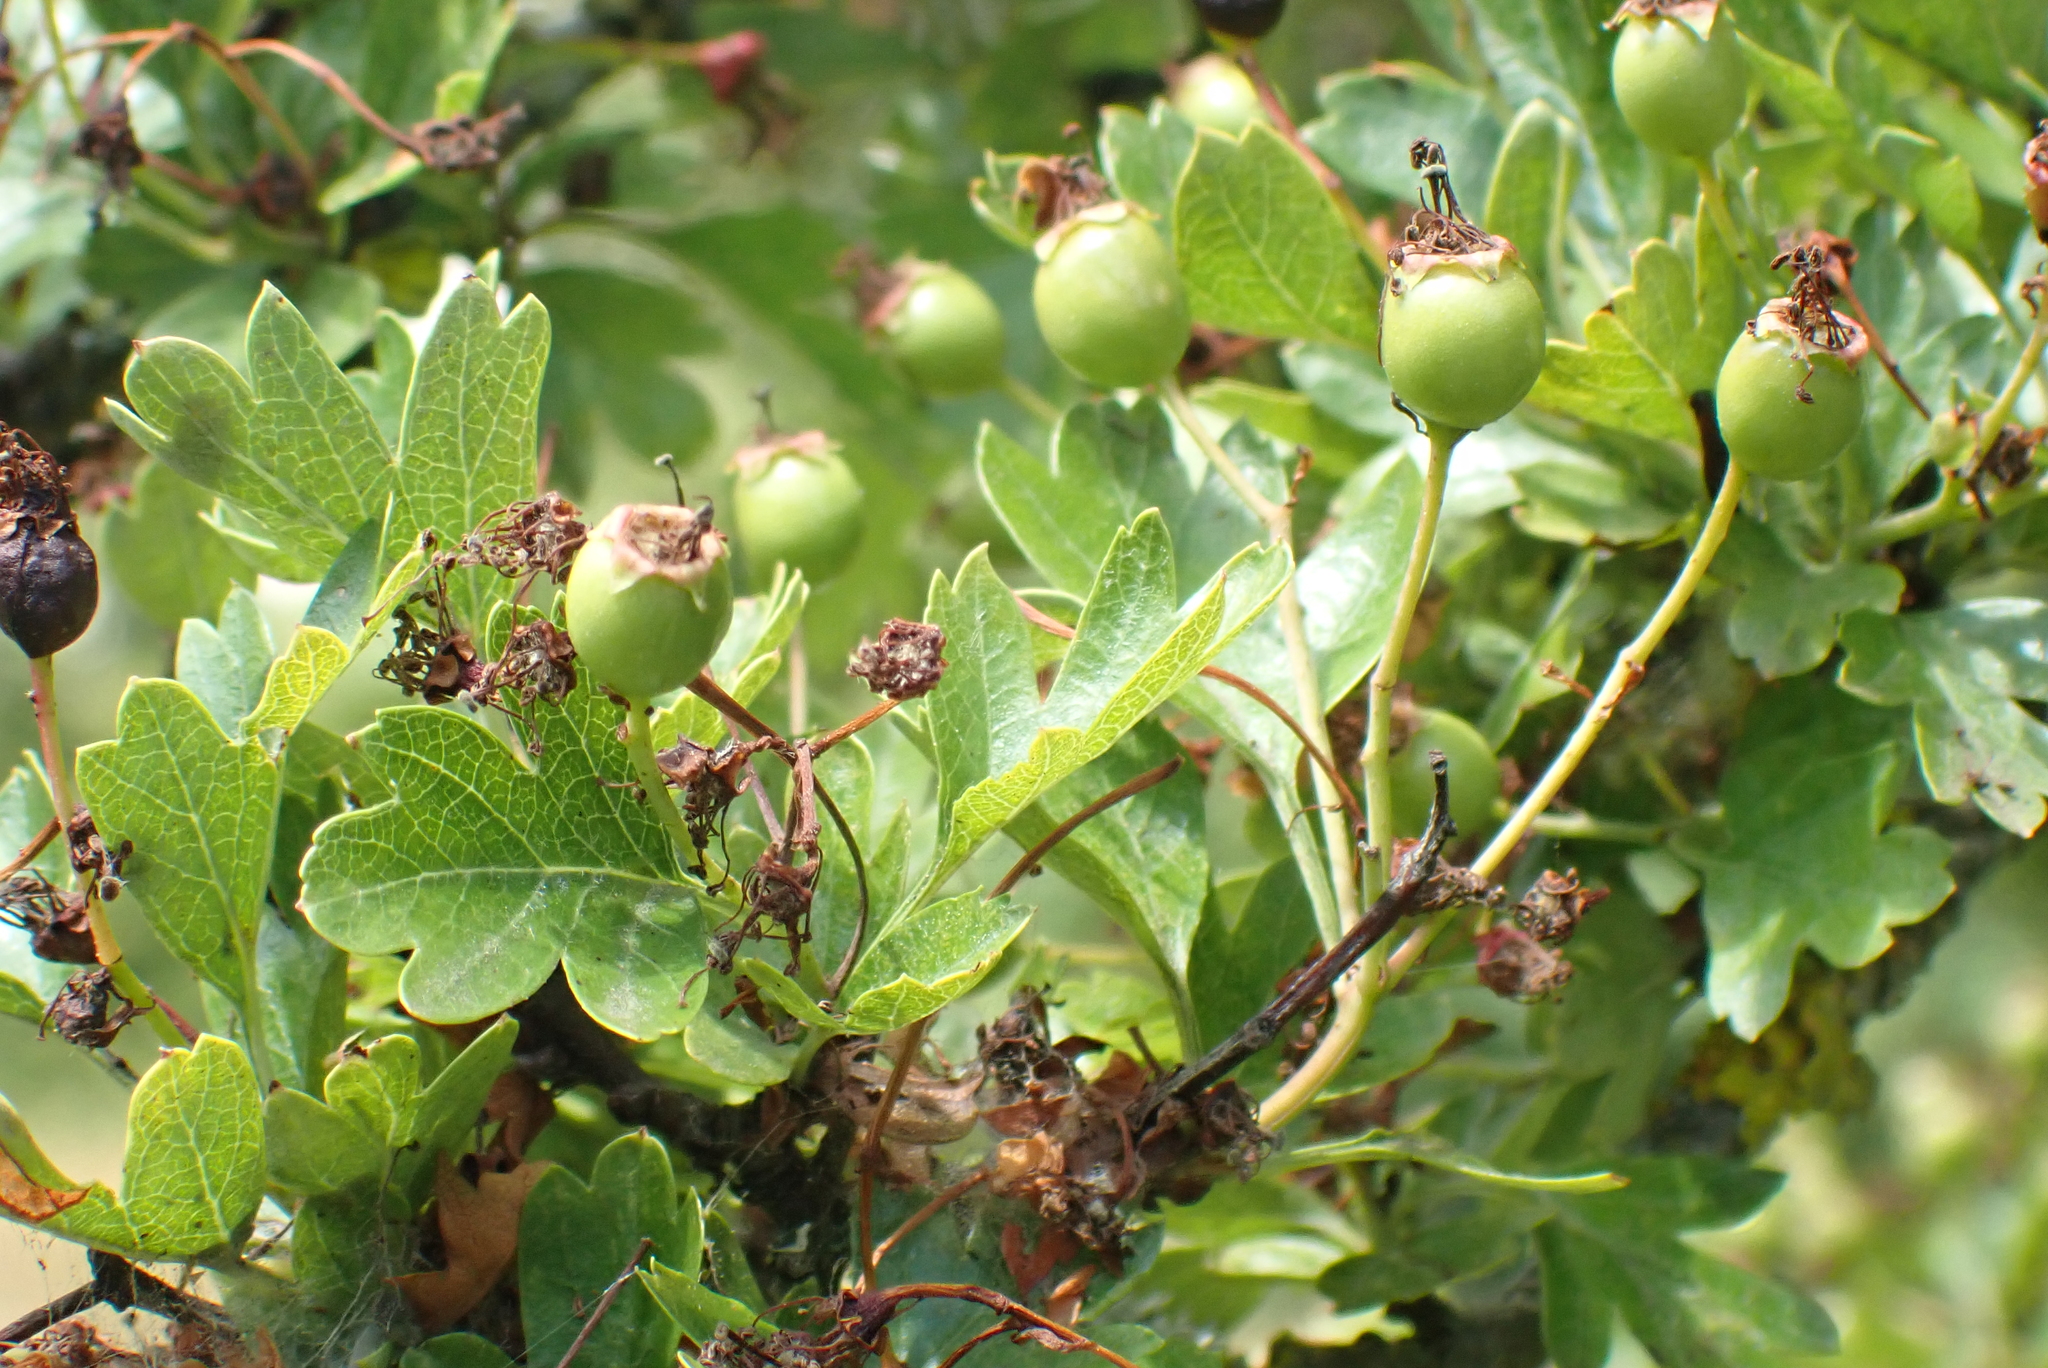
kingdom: Plantae
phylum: Tracheophyta
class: Magnoliopsida
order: Rosales
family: Rosaceae
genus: Crataegus
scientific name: Crataegus monogyna
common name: Hawthorn
